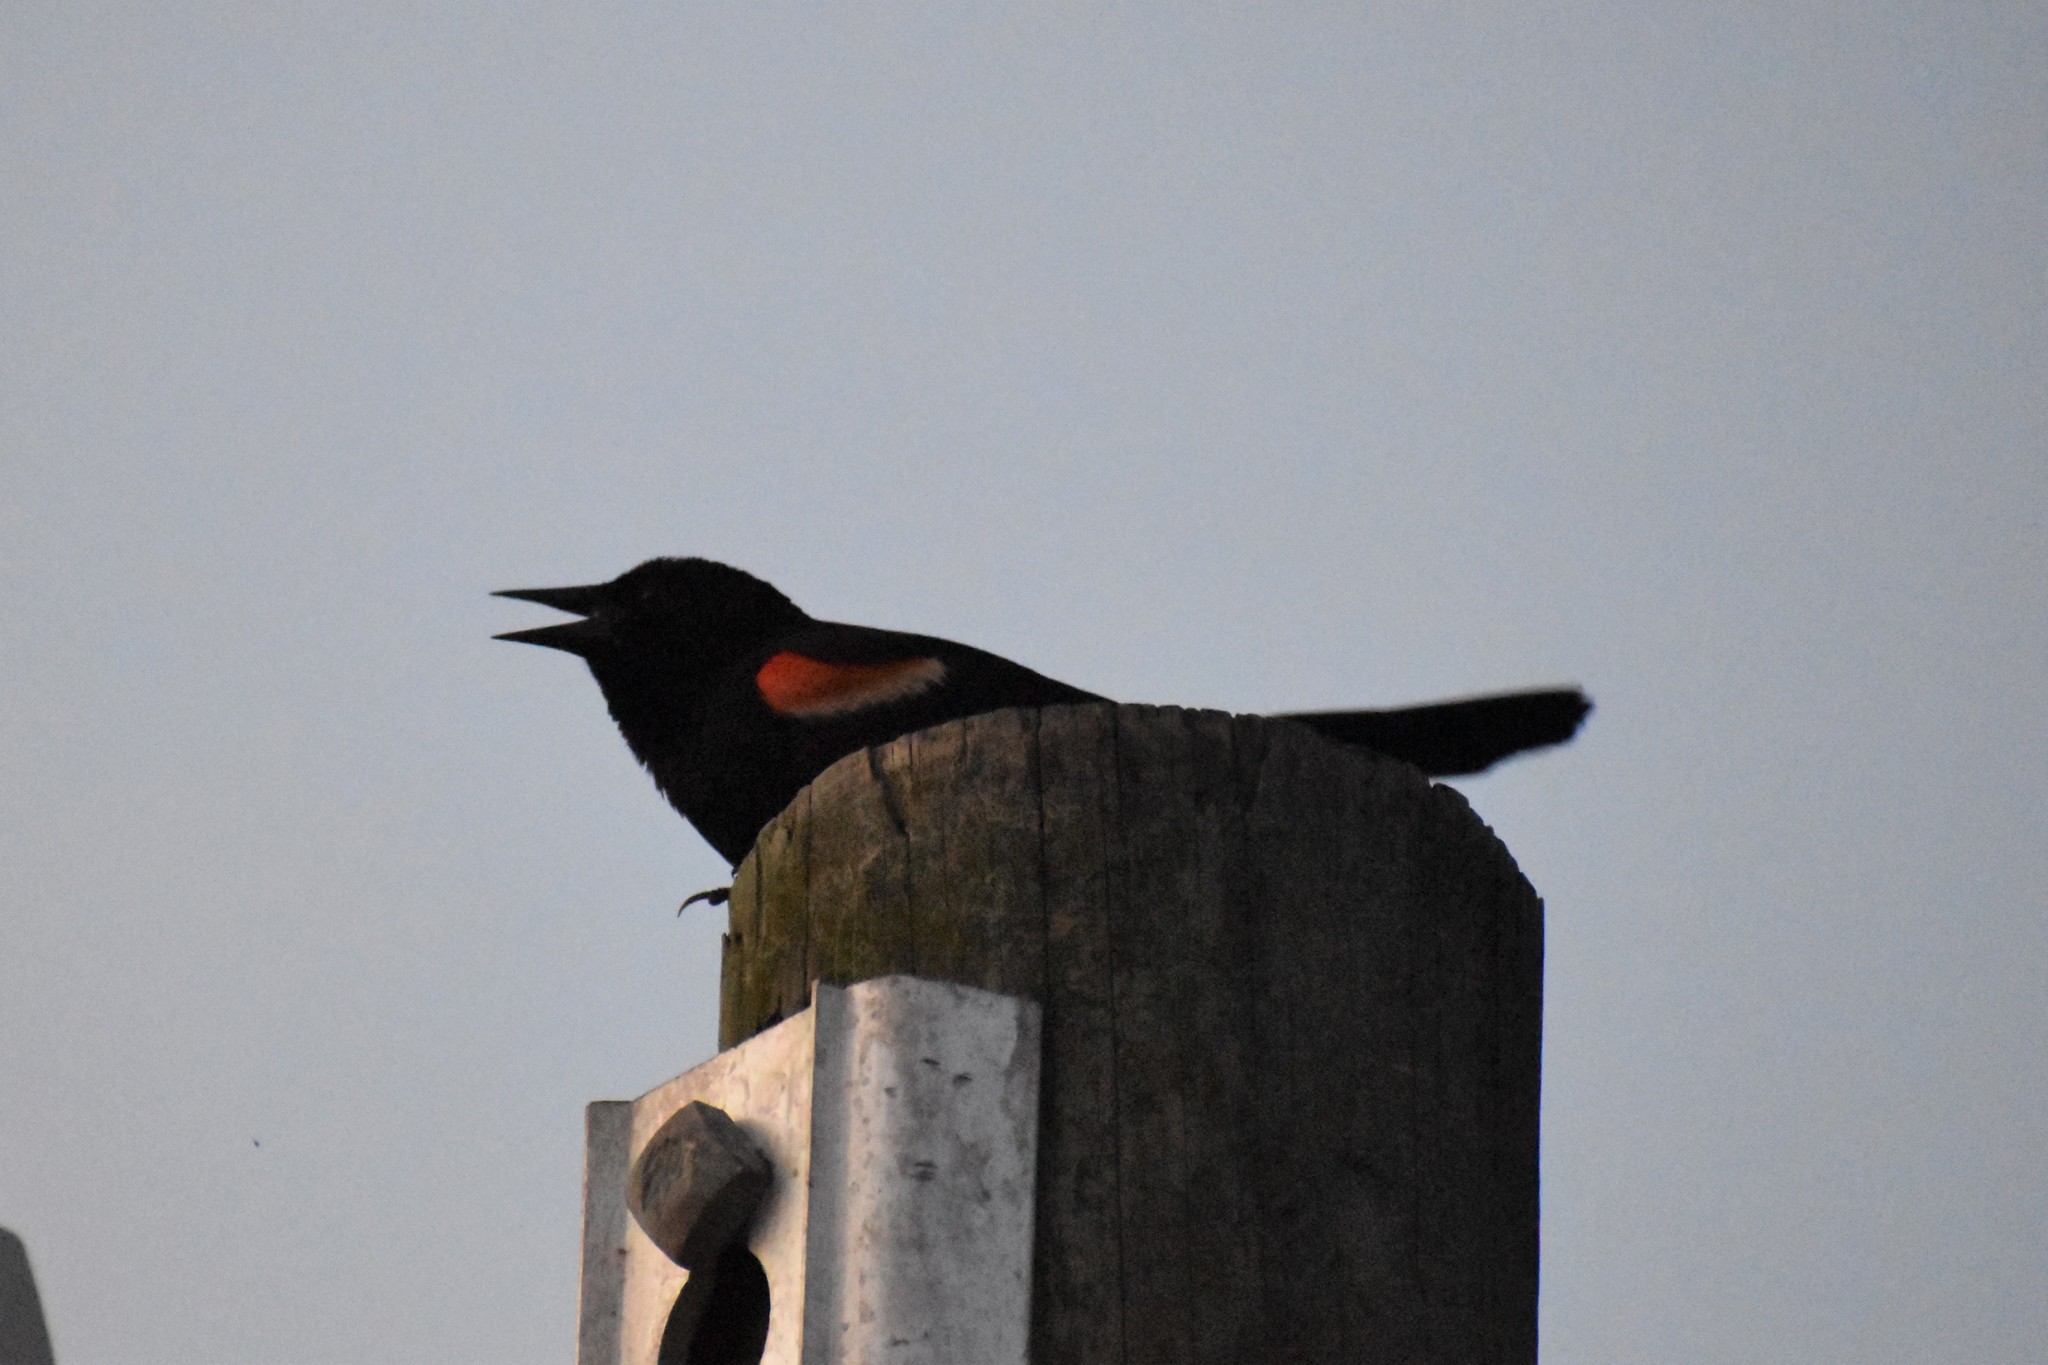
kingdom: Animalia
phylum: Chordata
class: Aves
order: Passeriformes
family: Icteridae
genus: Agelaius
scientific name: Agelaius phoeniceus
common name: Red-winged blackbird
